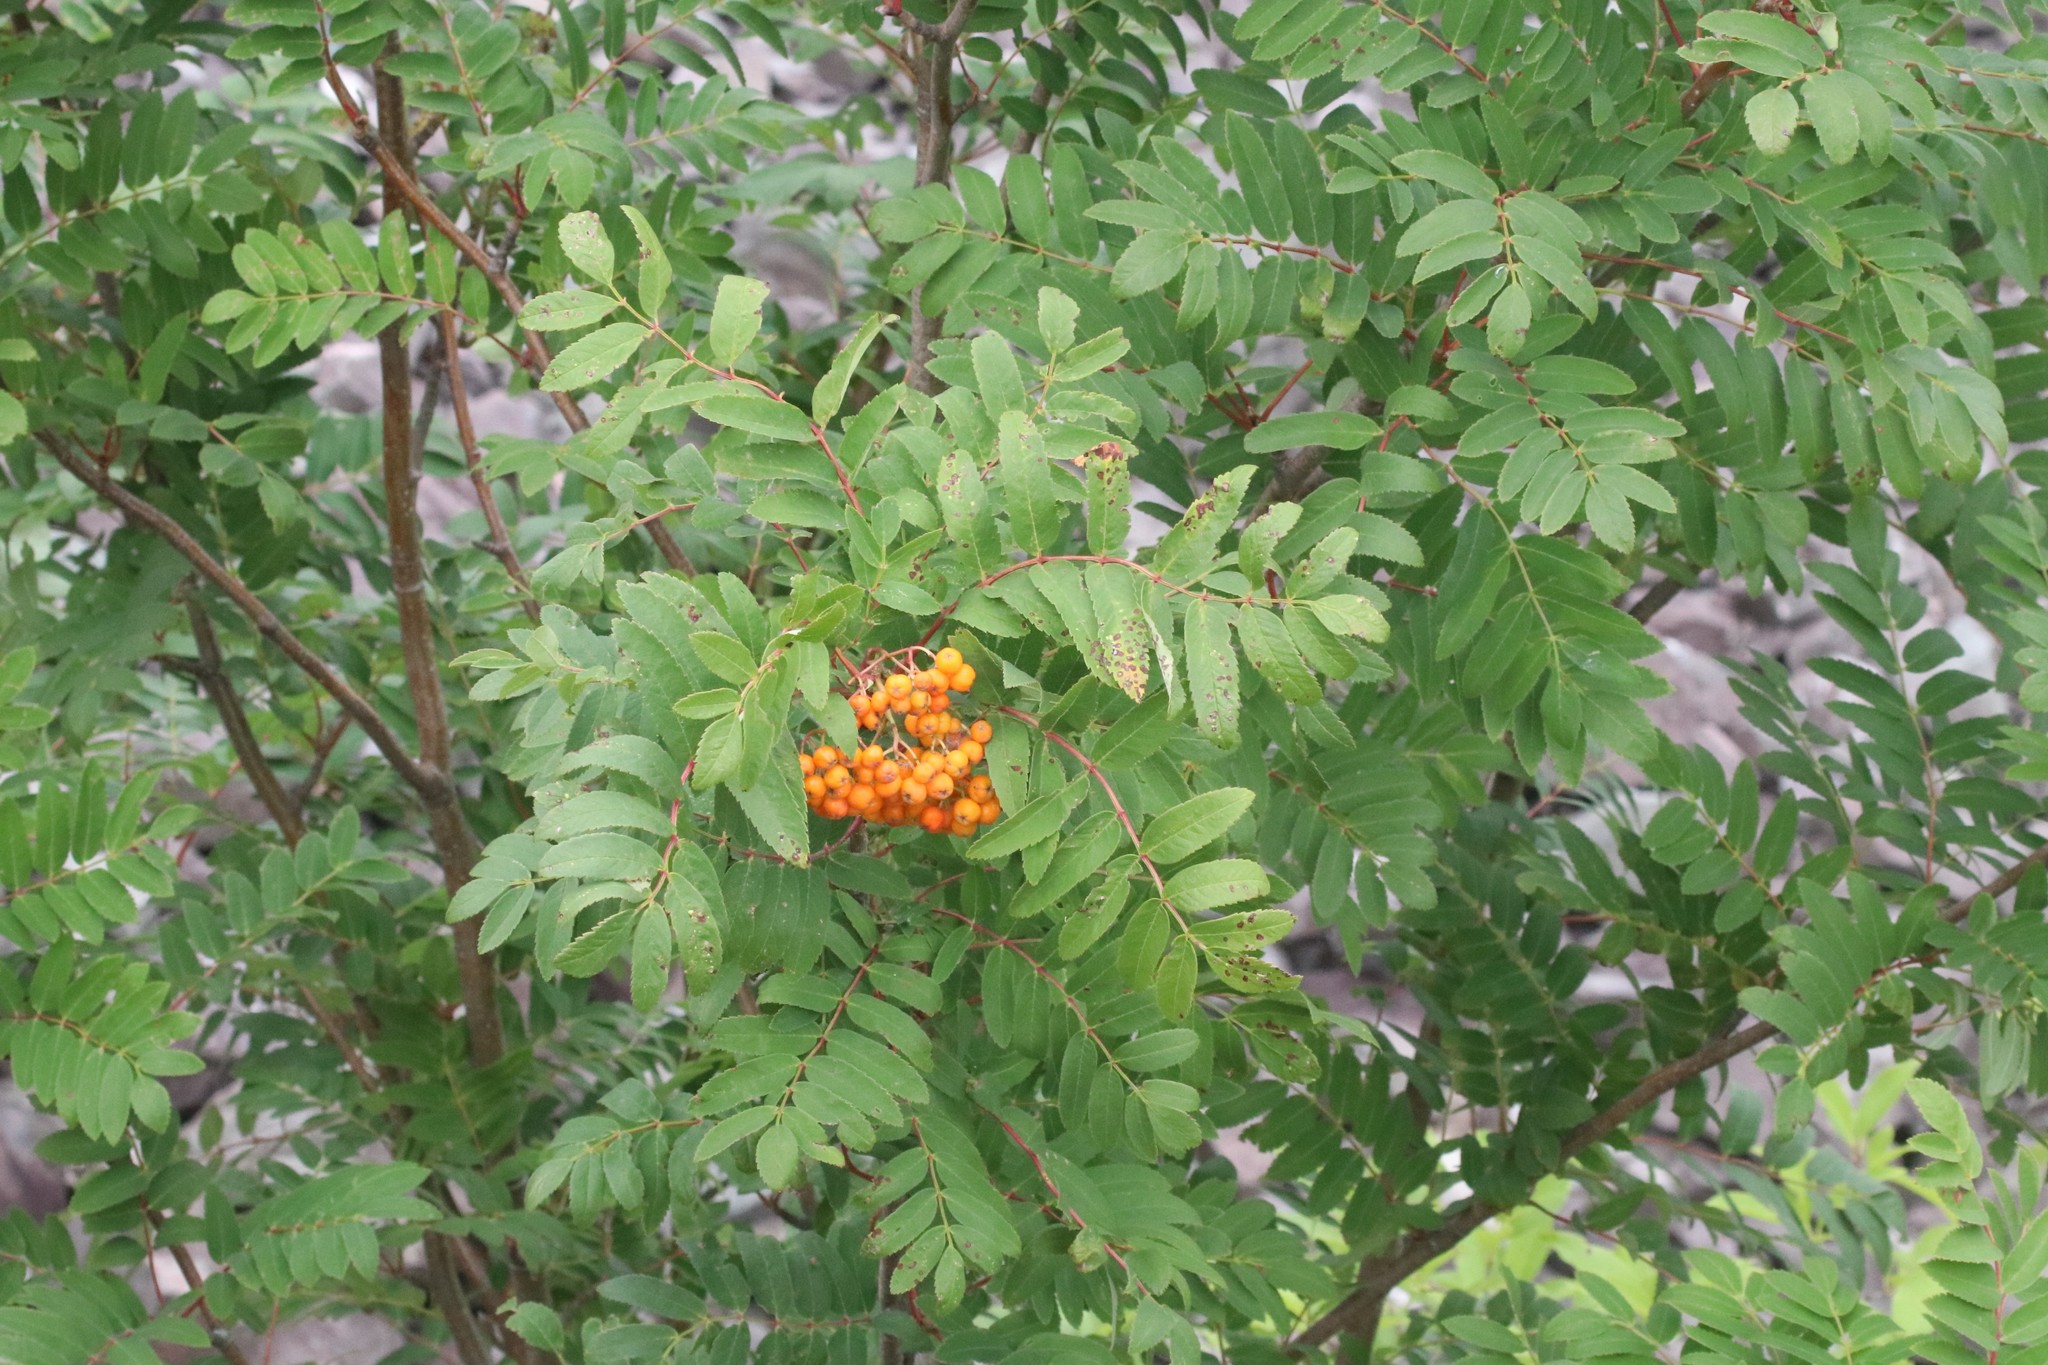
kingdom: Plantae
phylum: Tracheophyta
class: Magnoliopsida
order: Rosales
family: Rosaceae
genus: Sorbus
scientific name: Sorbus aucuparia
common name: Rowan
